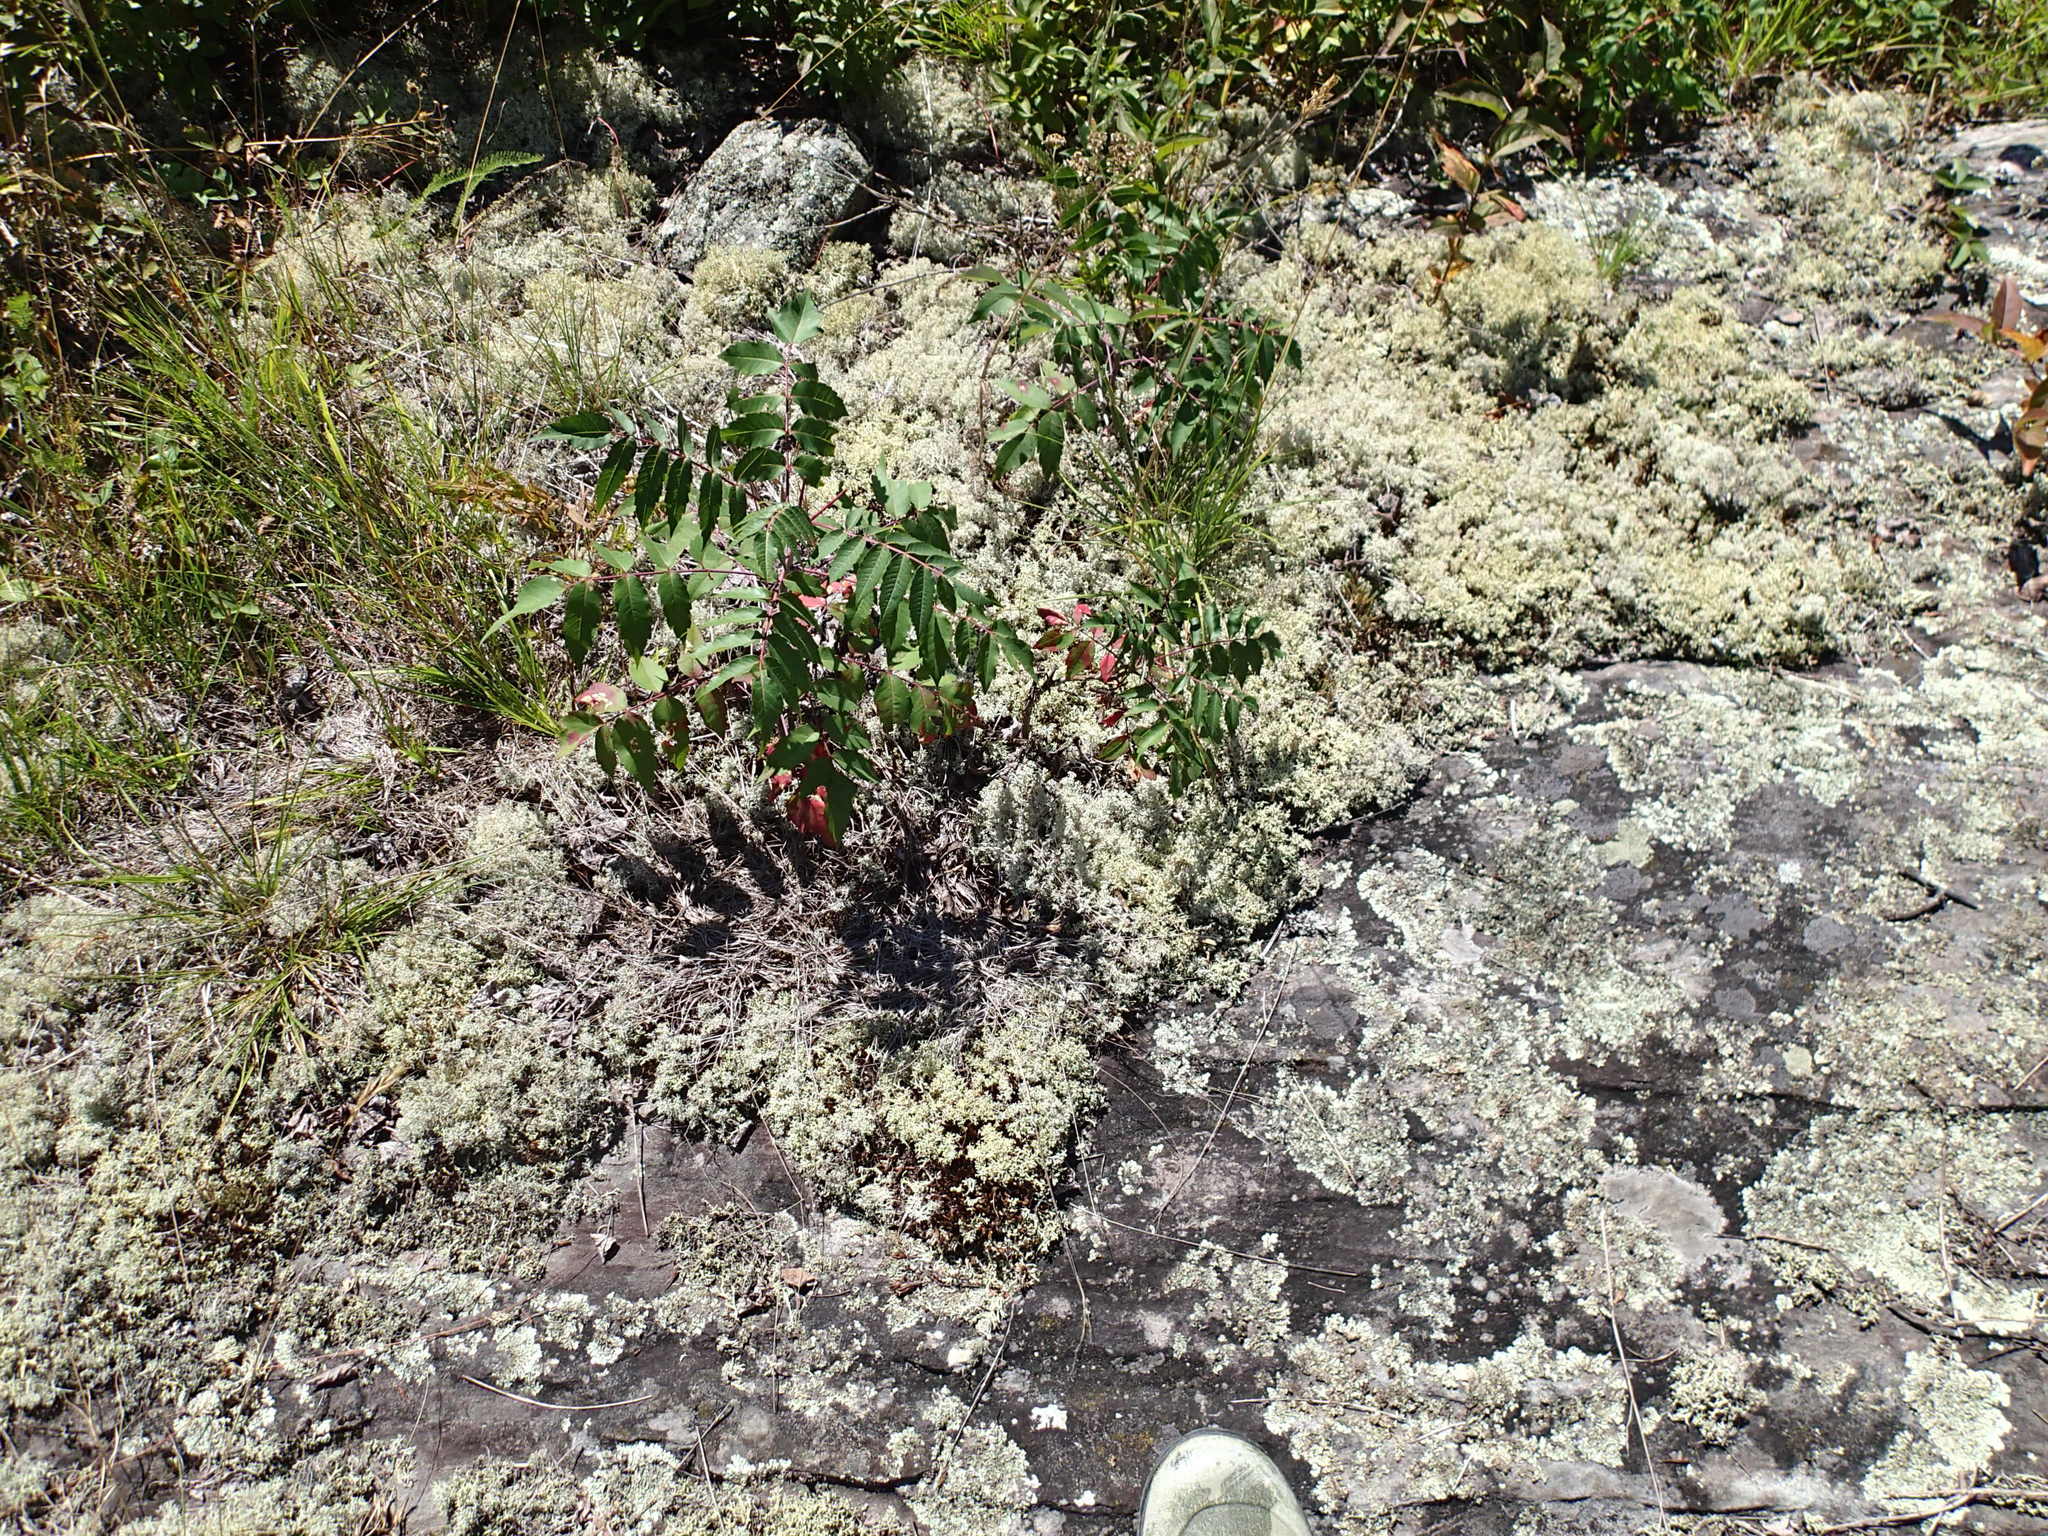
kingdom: Plantae
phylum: Tracheophyta
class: Magnoliopsida
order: Sapindales
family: Anacardiaceae
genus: Rhus
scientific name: Rhus glabra
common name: Scarlet sumac
